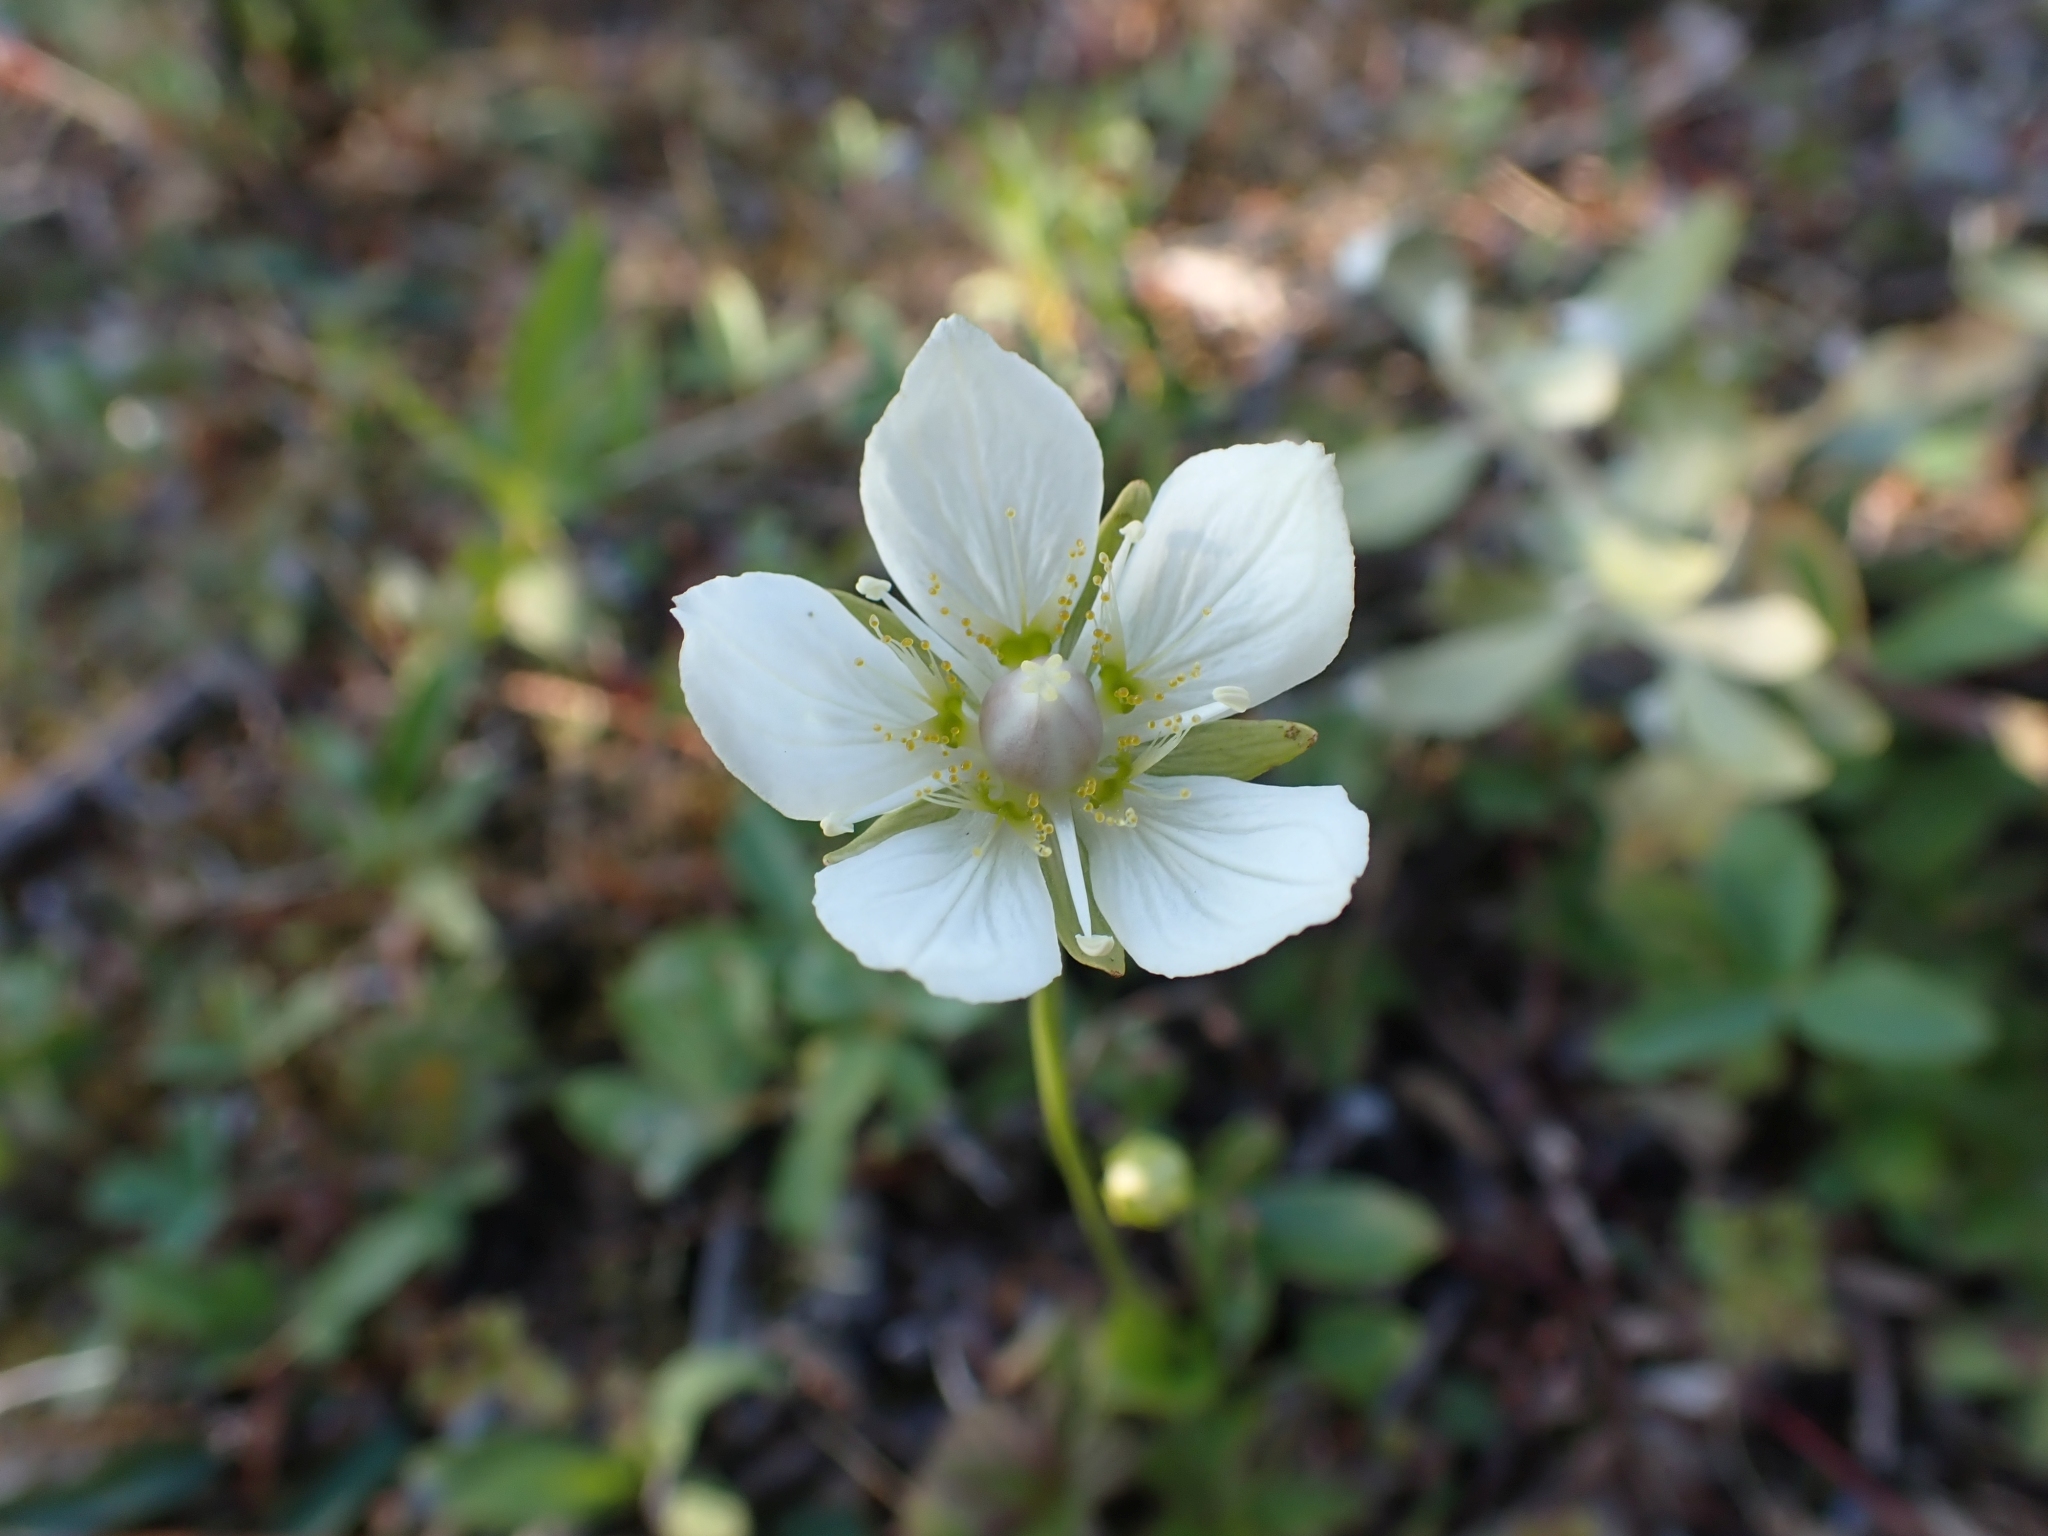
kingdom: Plantae
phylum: Tracheophyta
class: Magnoliopsida
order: Celastrales
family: Parnassiaceae
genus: Parnassia
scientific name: Parnassia palustris
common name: Grass-of-parnassus
